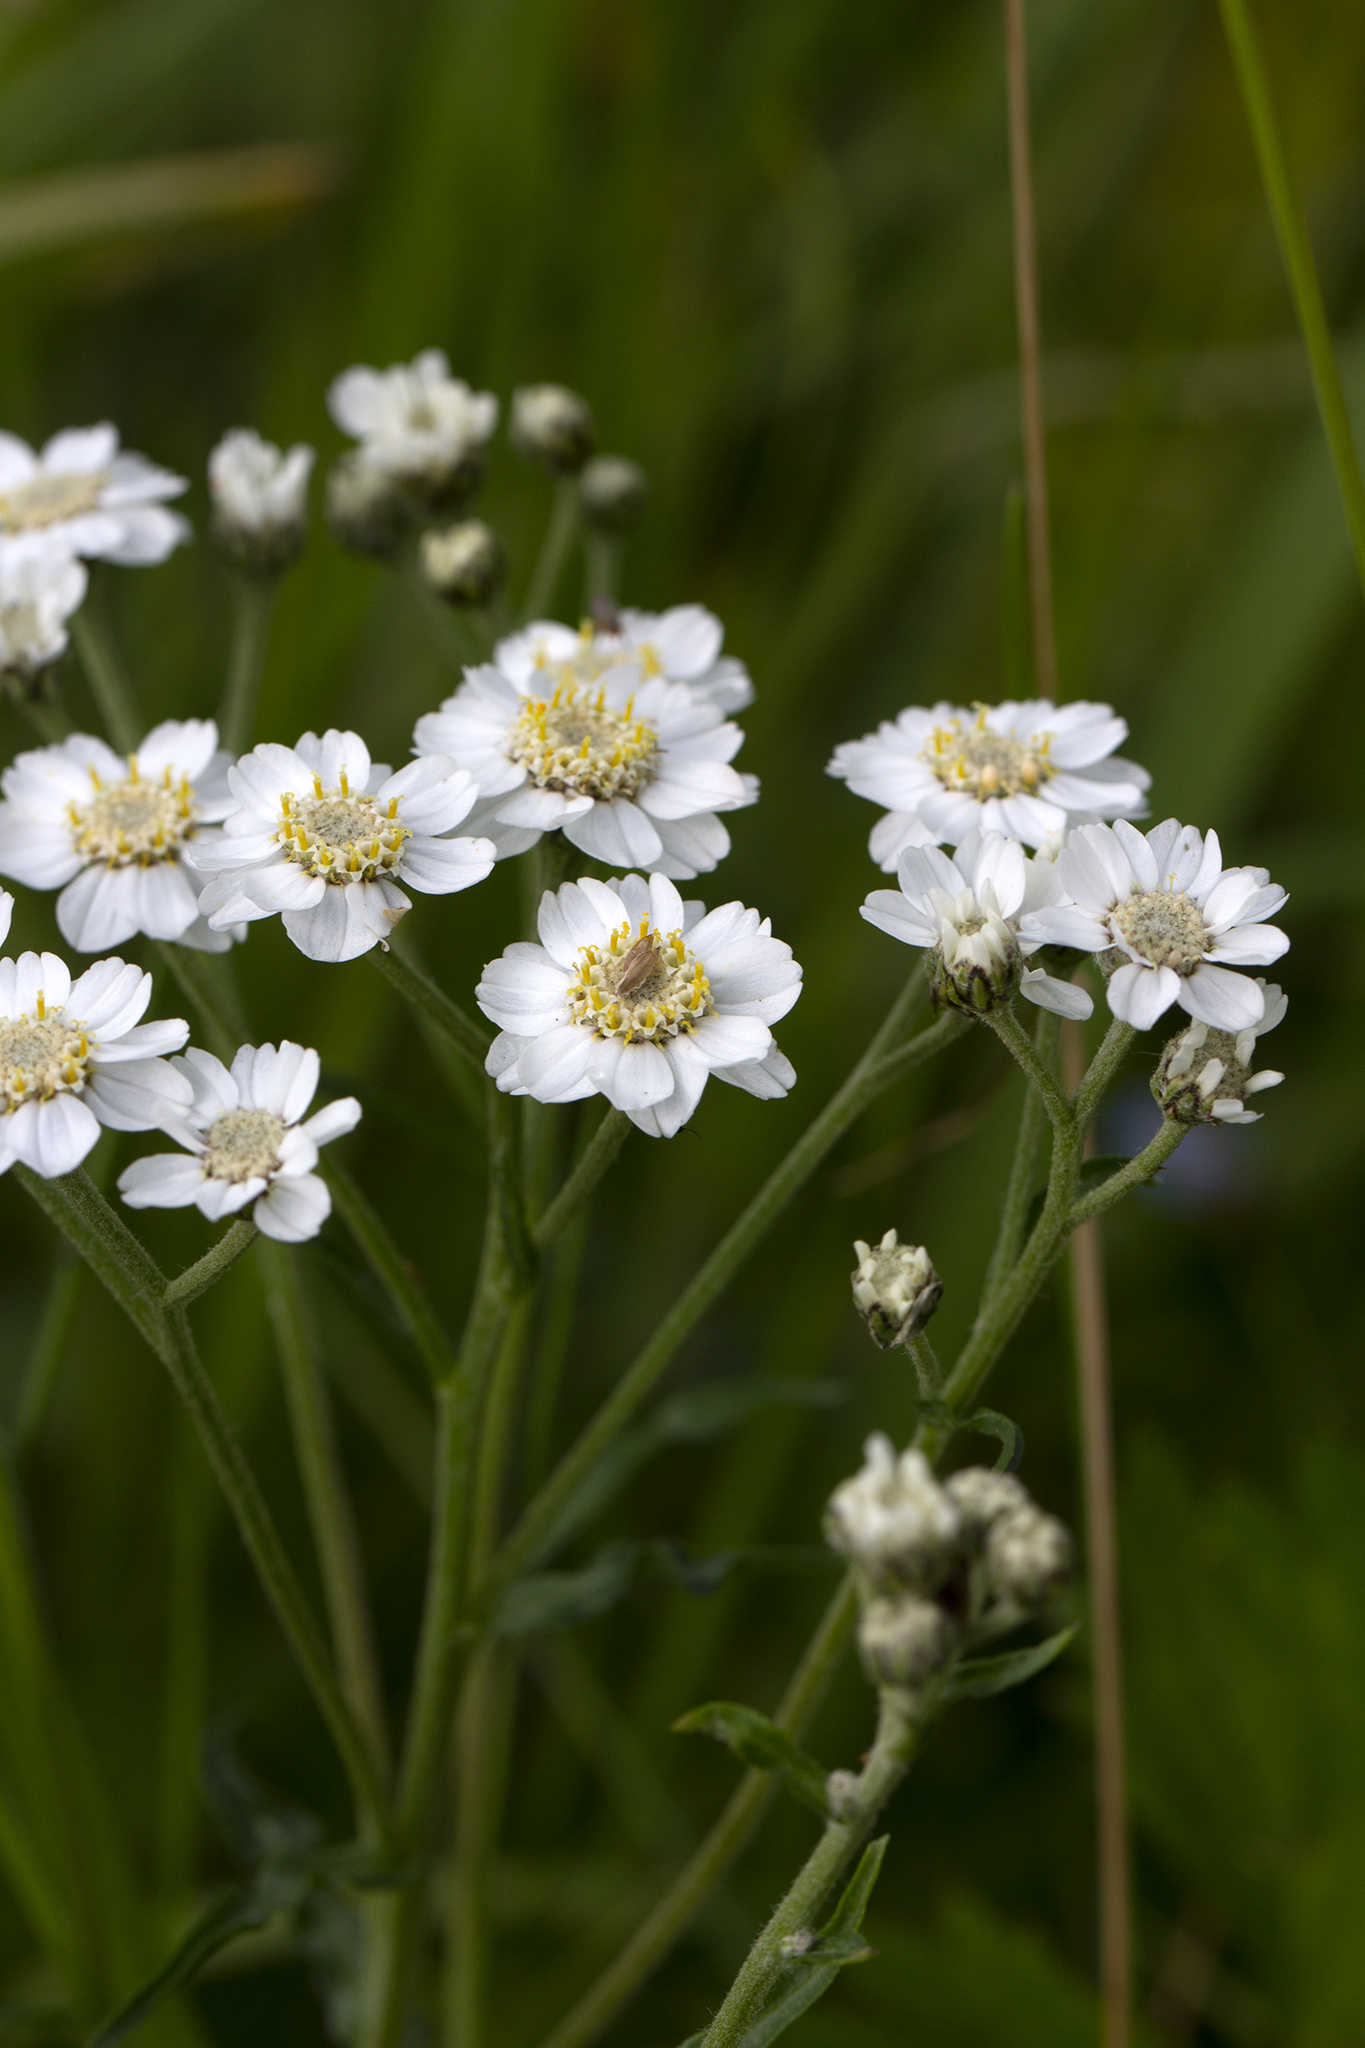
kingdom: Plantae
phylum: Tracheophyta
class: Magnoliopsida
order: Asterales
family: Asteraceae
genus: Achillea
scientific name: Achillea ptarmica
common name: Sneezeweed
